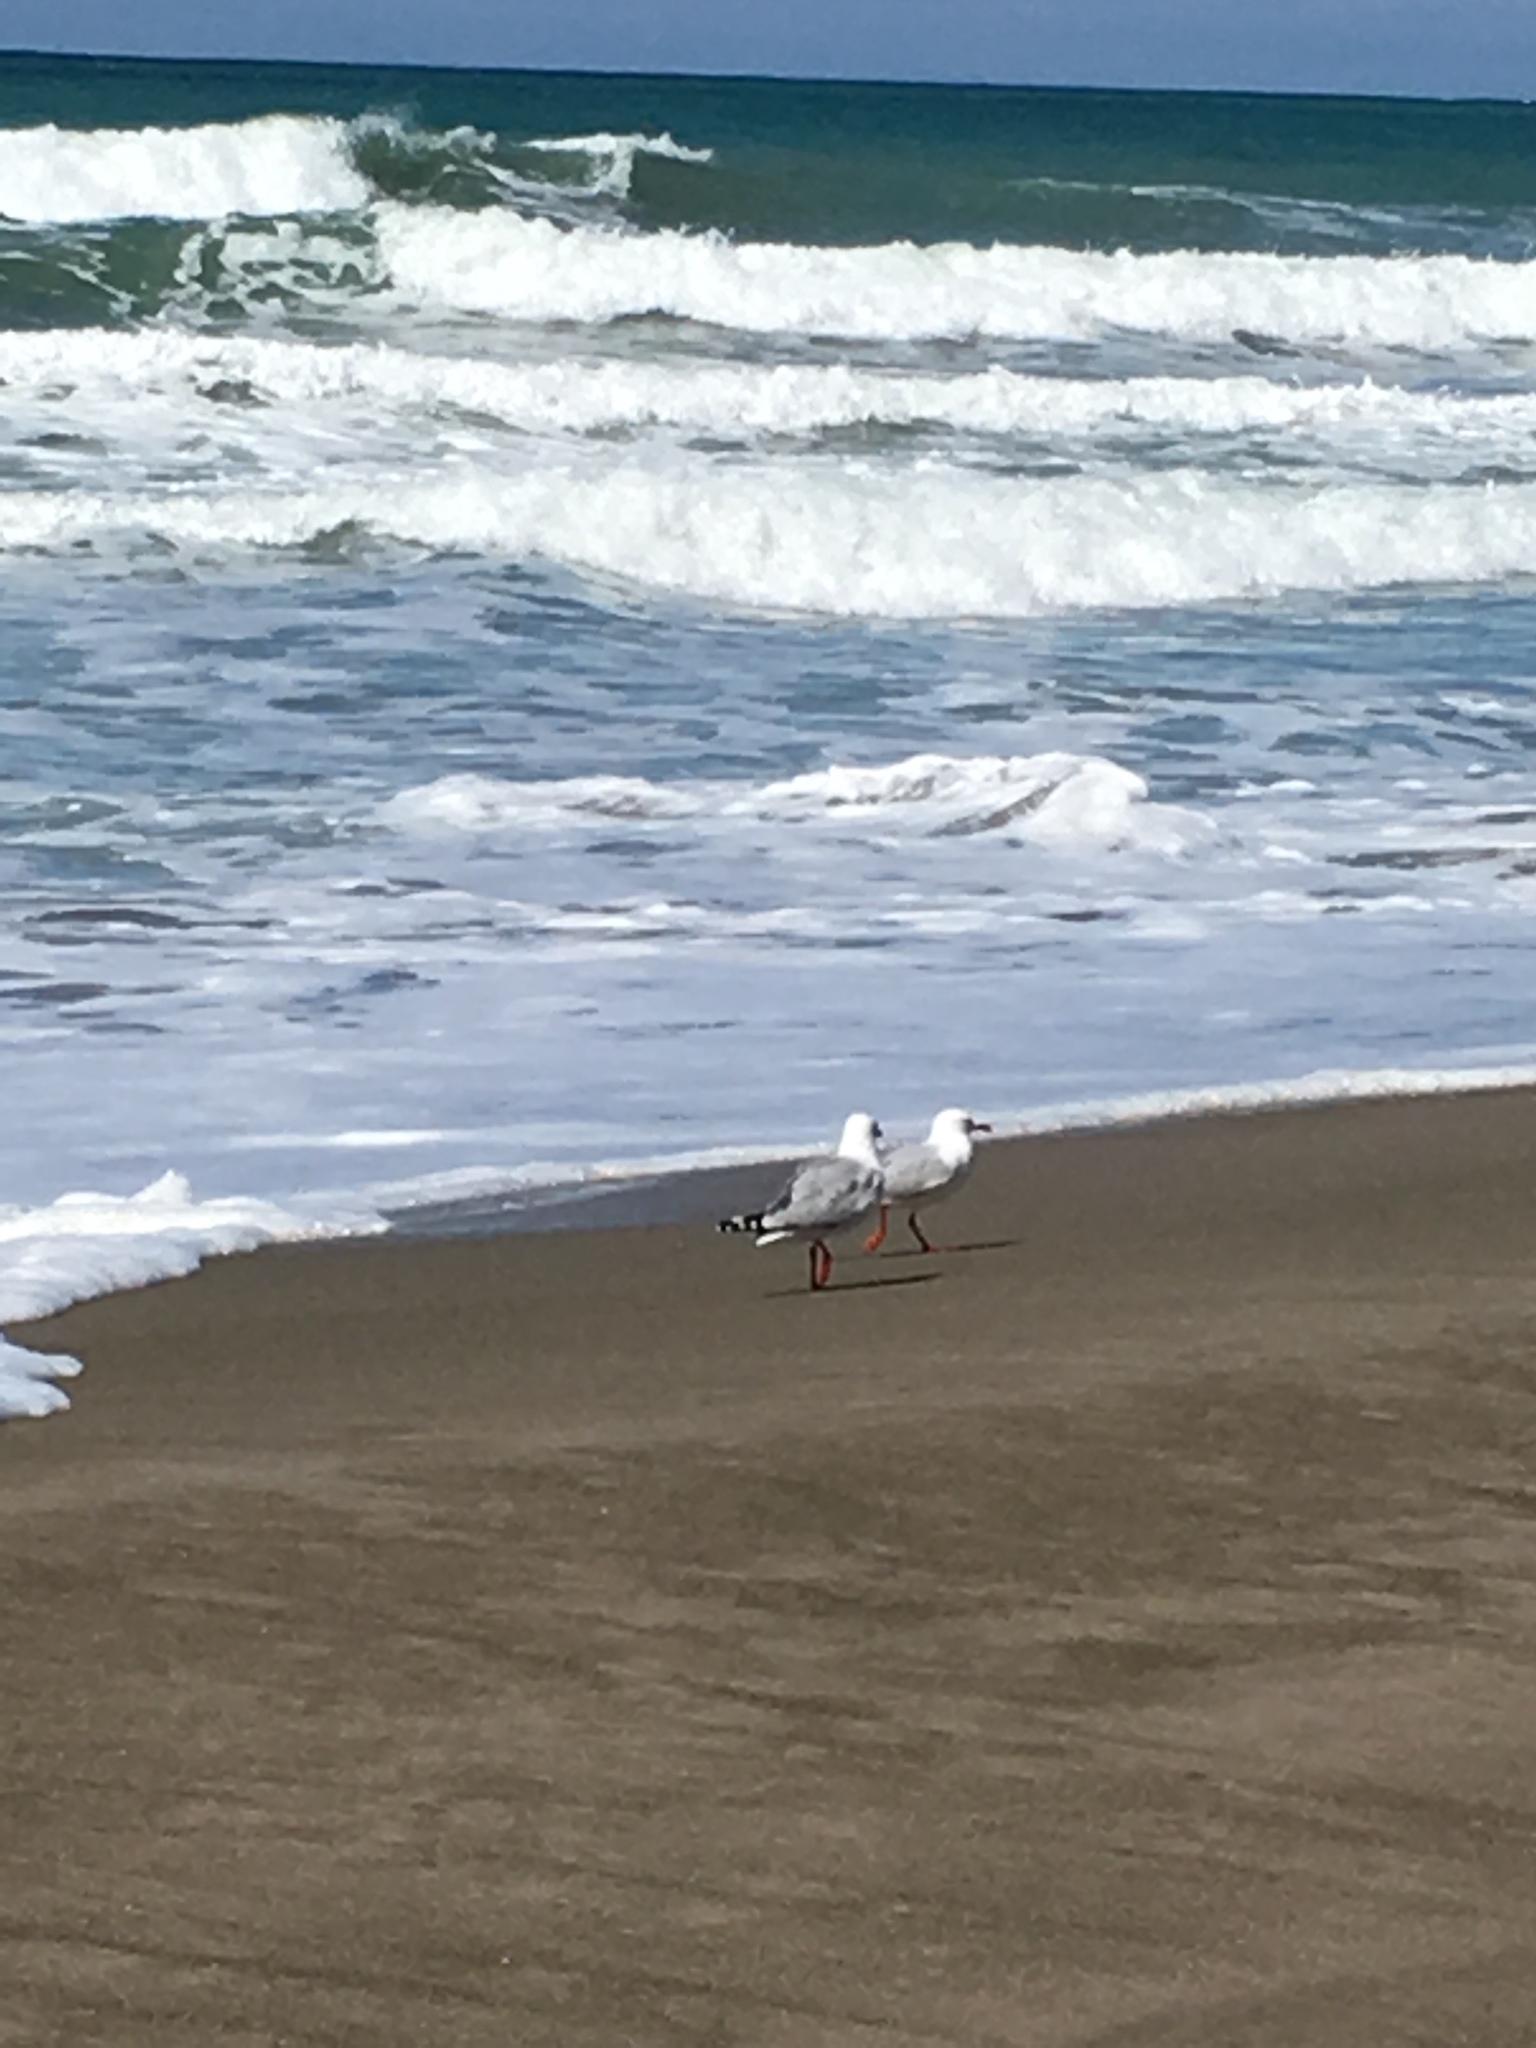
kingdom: Animalia
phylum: Chordata
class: Aves
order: Charadriiformes
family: Laridae
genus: Chroicocephalus
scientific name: Chroicocephalus novaehollandiae
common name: Silver gull
